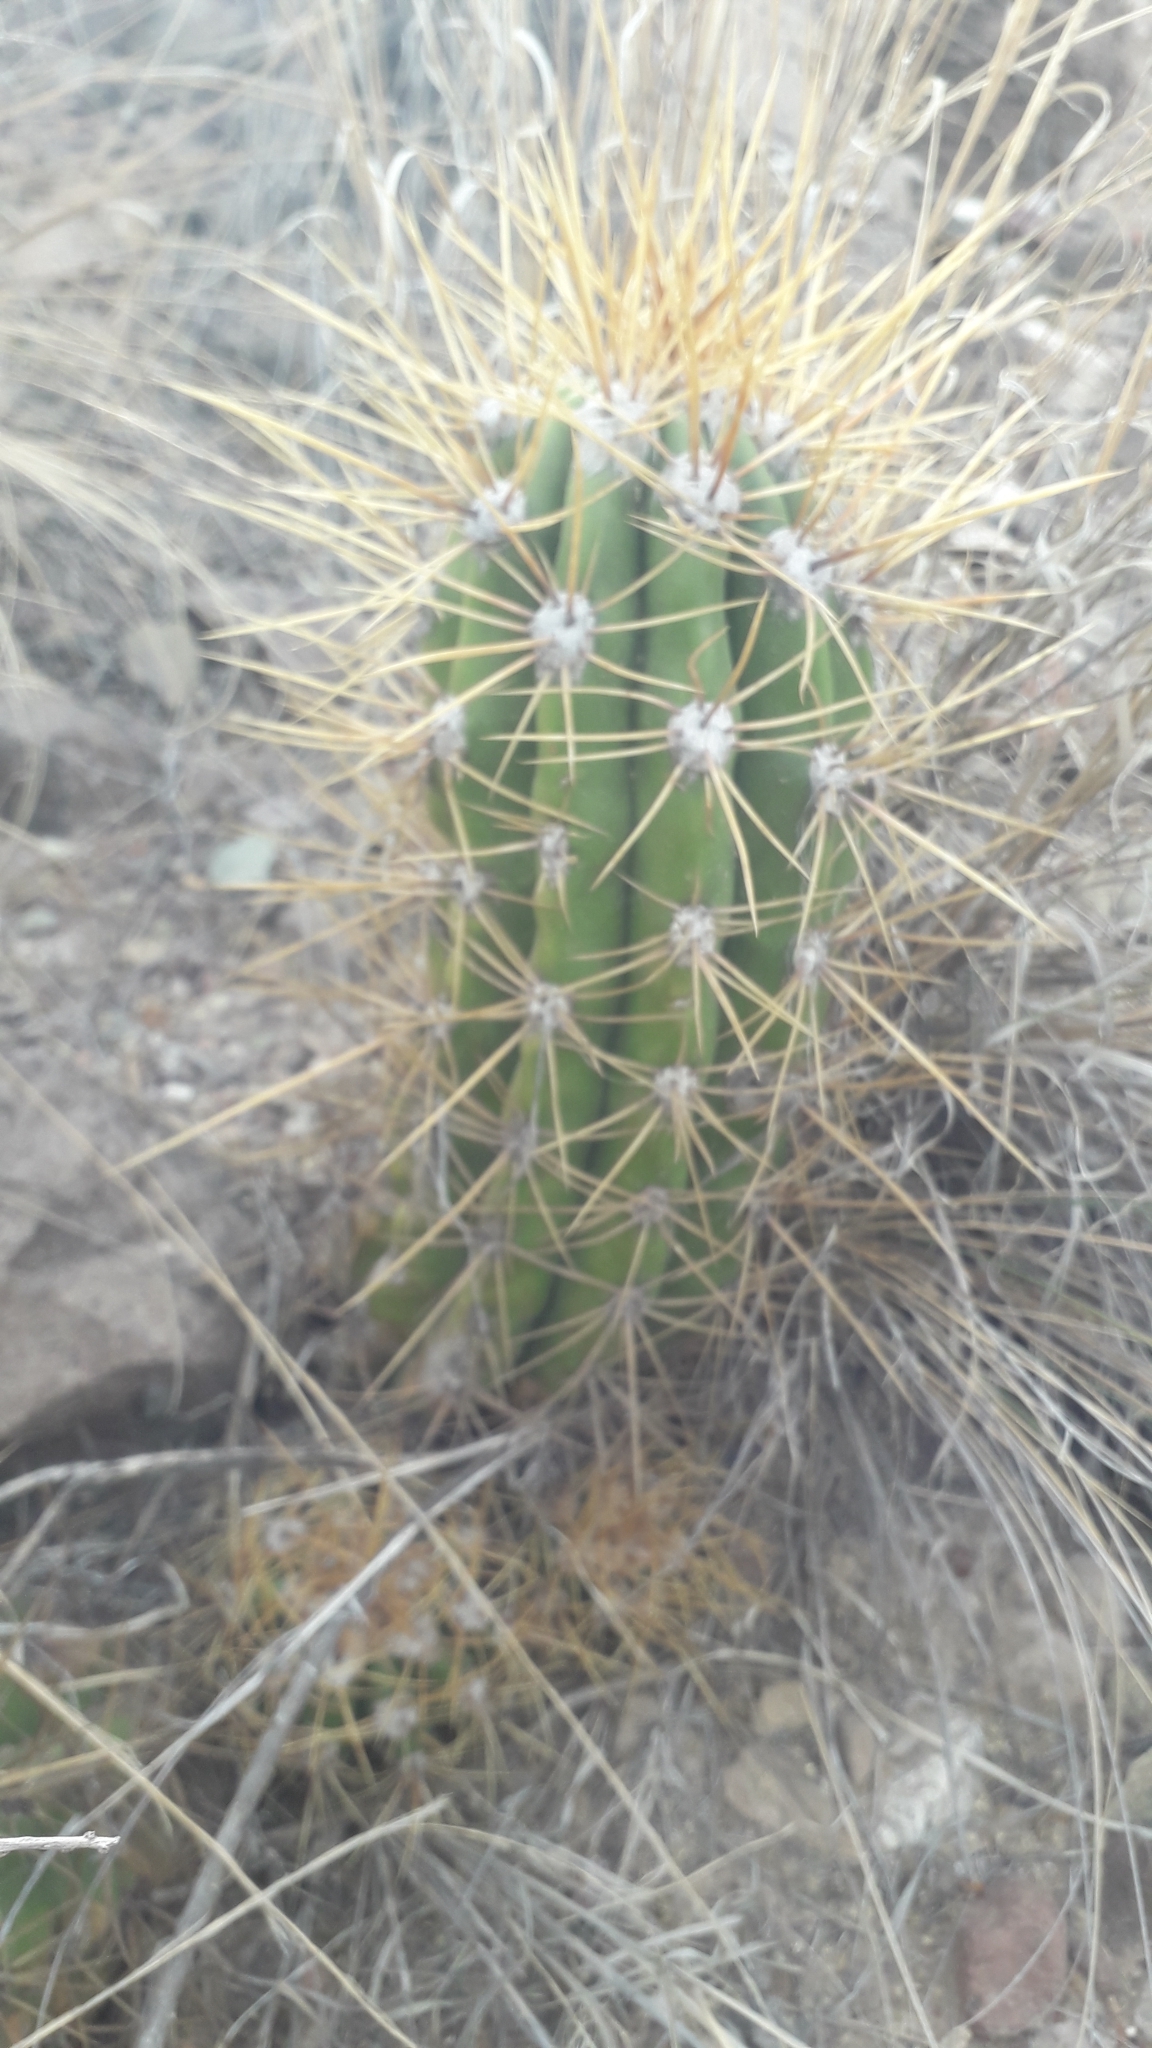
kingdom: Plantae
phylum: Tracheophyta
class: Magnoliopsida
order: Caryophyllales
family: Cactaceae
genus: Soehrensia
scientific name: Soehrensia candicans
